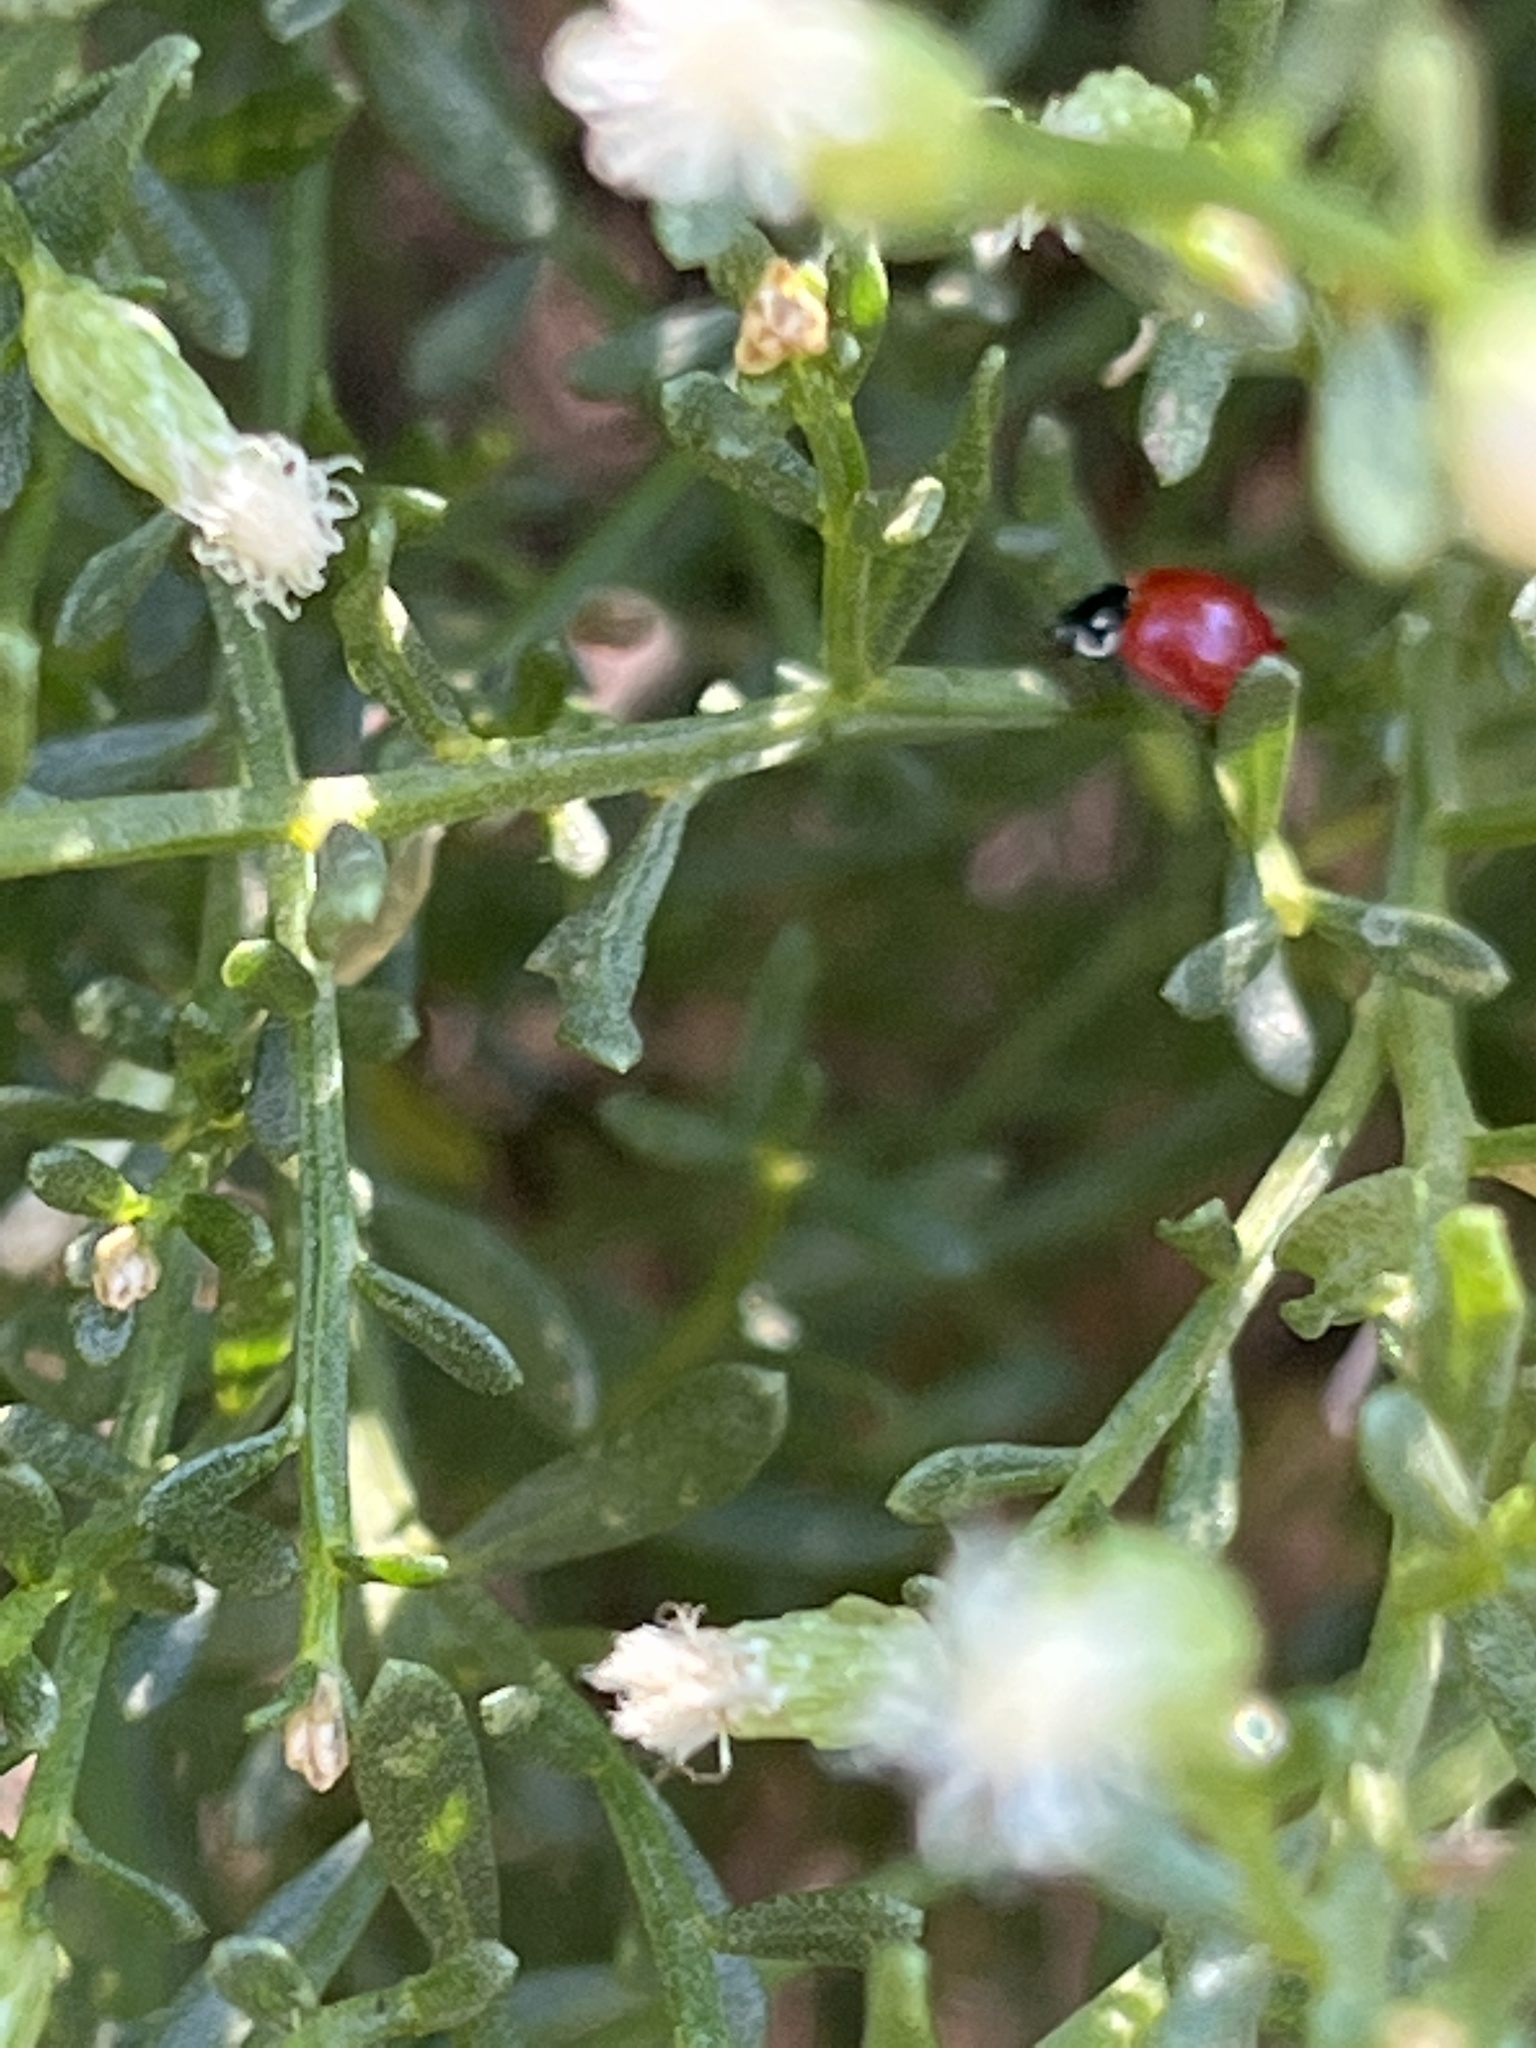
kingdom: Animalia
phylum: Arthropoda
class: Insecta
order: Coleoptera
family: Coccinellidae
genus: Cycloneda
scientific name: Cycloneda sanguinea
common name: Ladybird beetle
